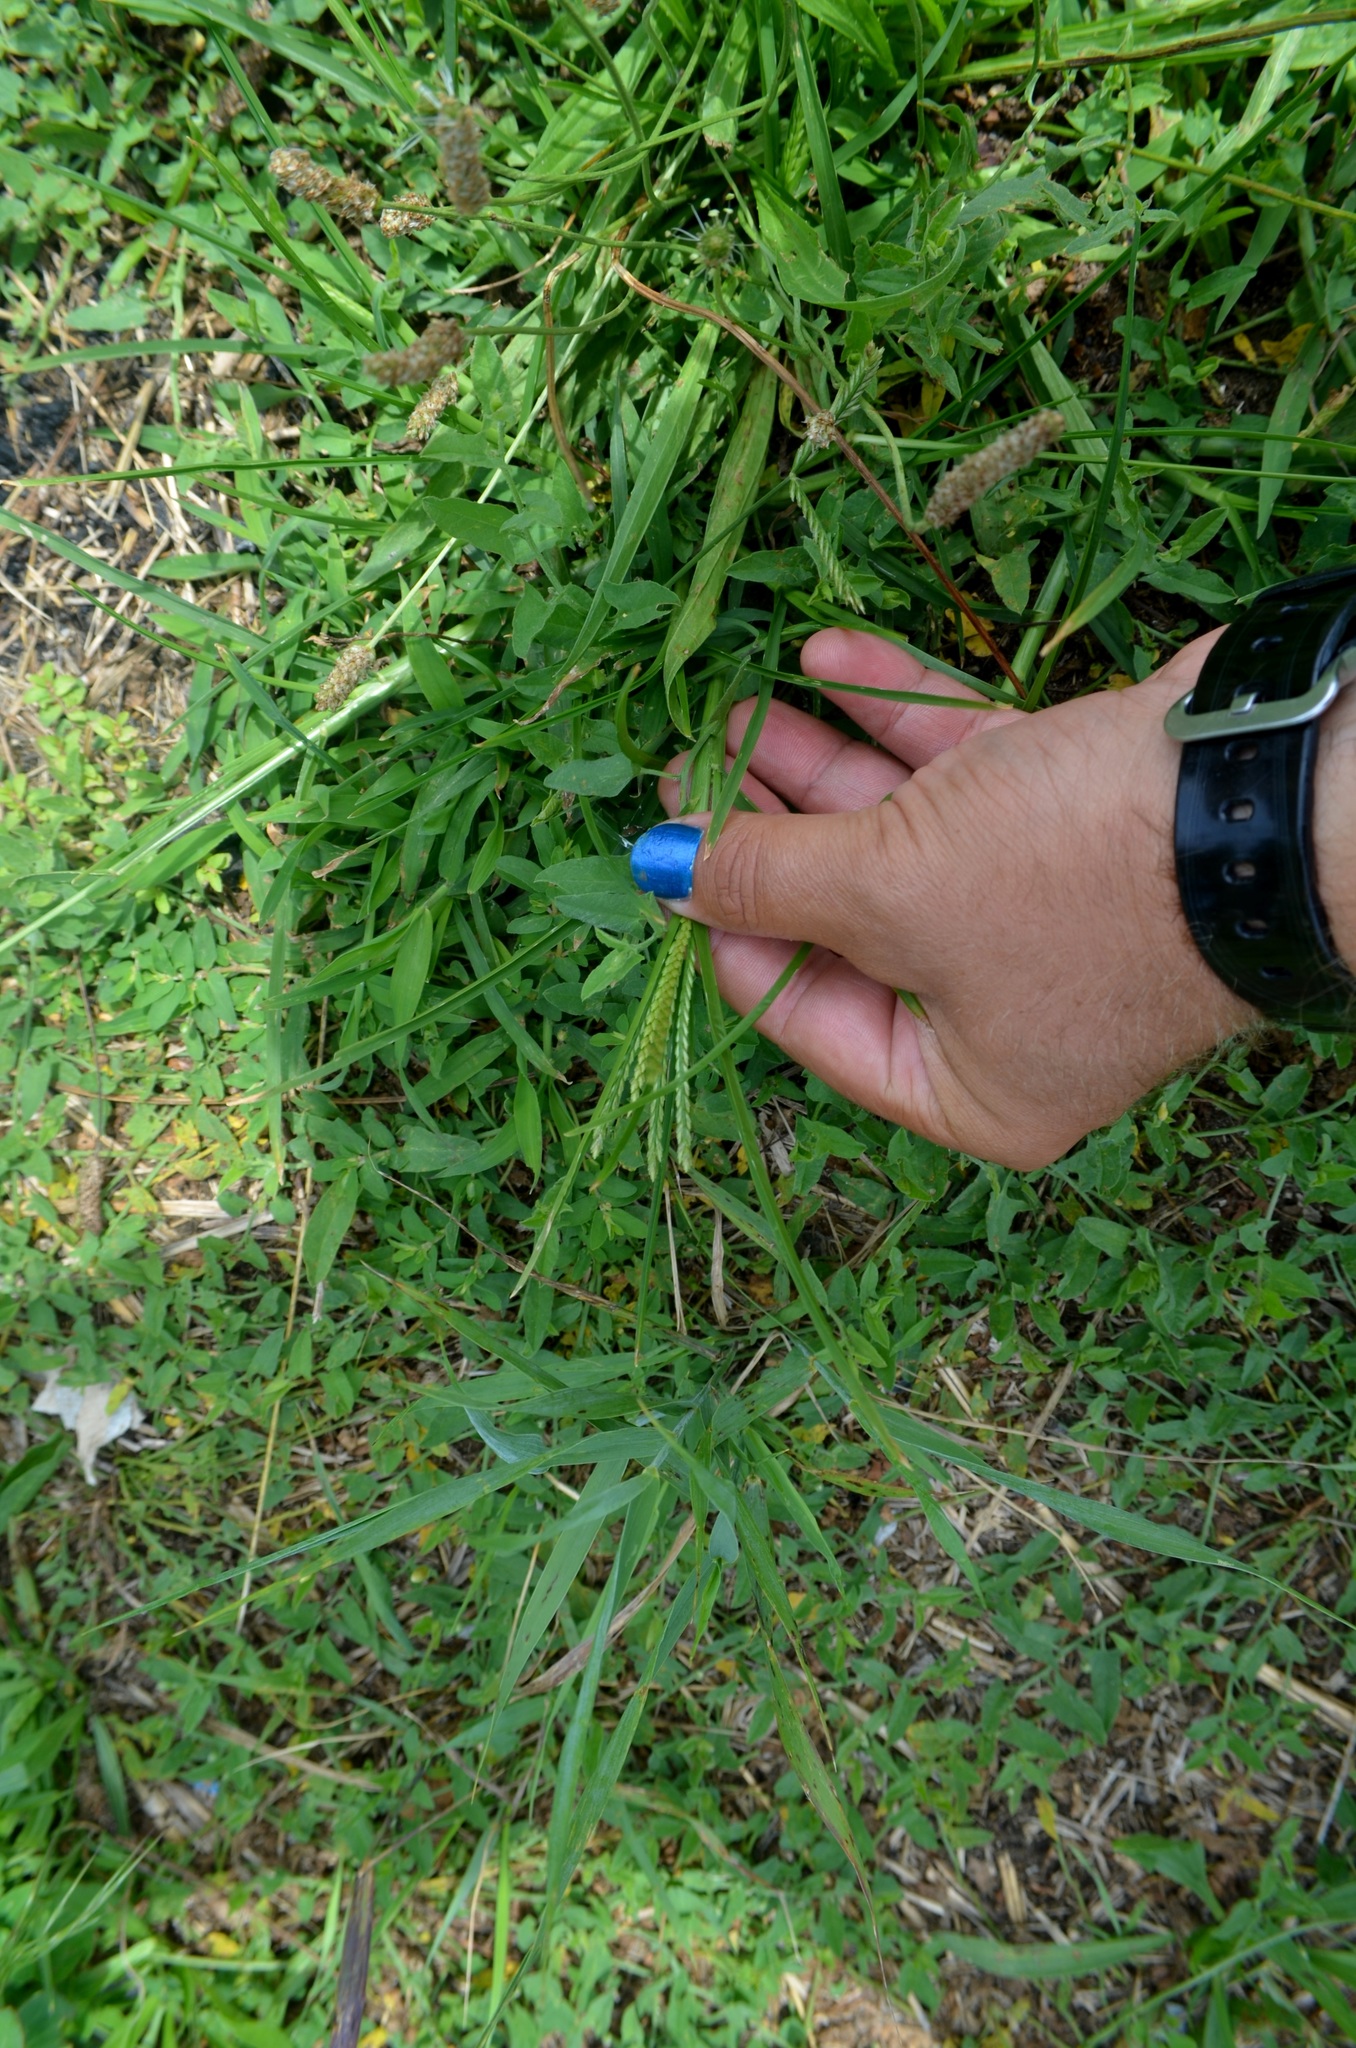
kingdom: Plantae
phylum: Tracheophyta
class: Liliopsida
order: Poales
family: Poaceae
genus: Eleusine
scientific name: Eleusine indica
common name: Yard-grass
